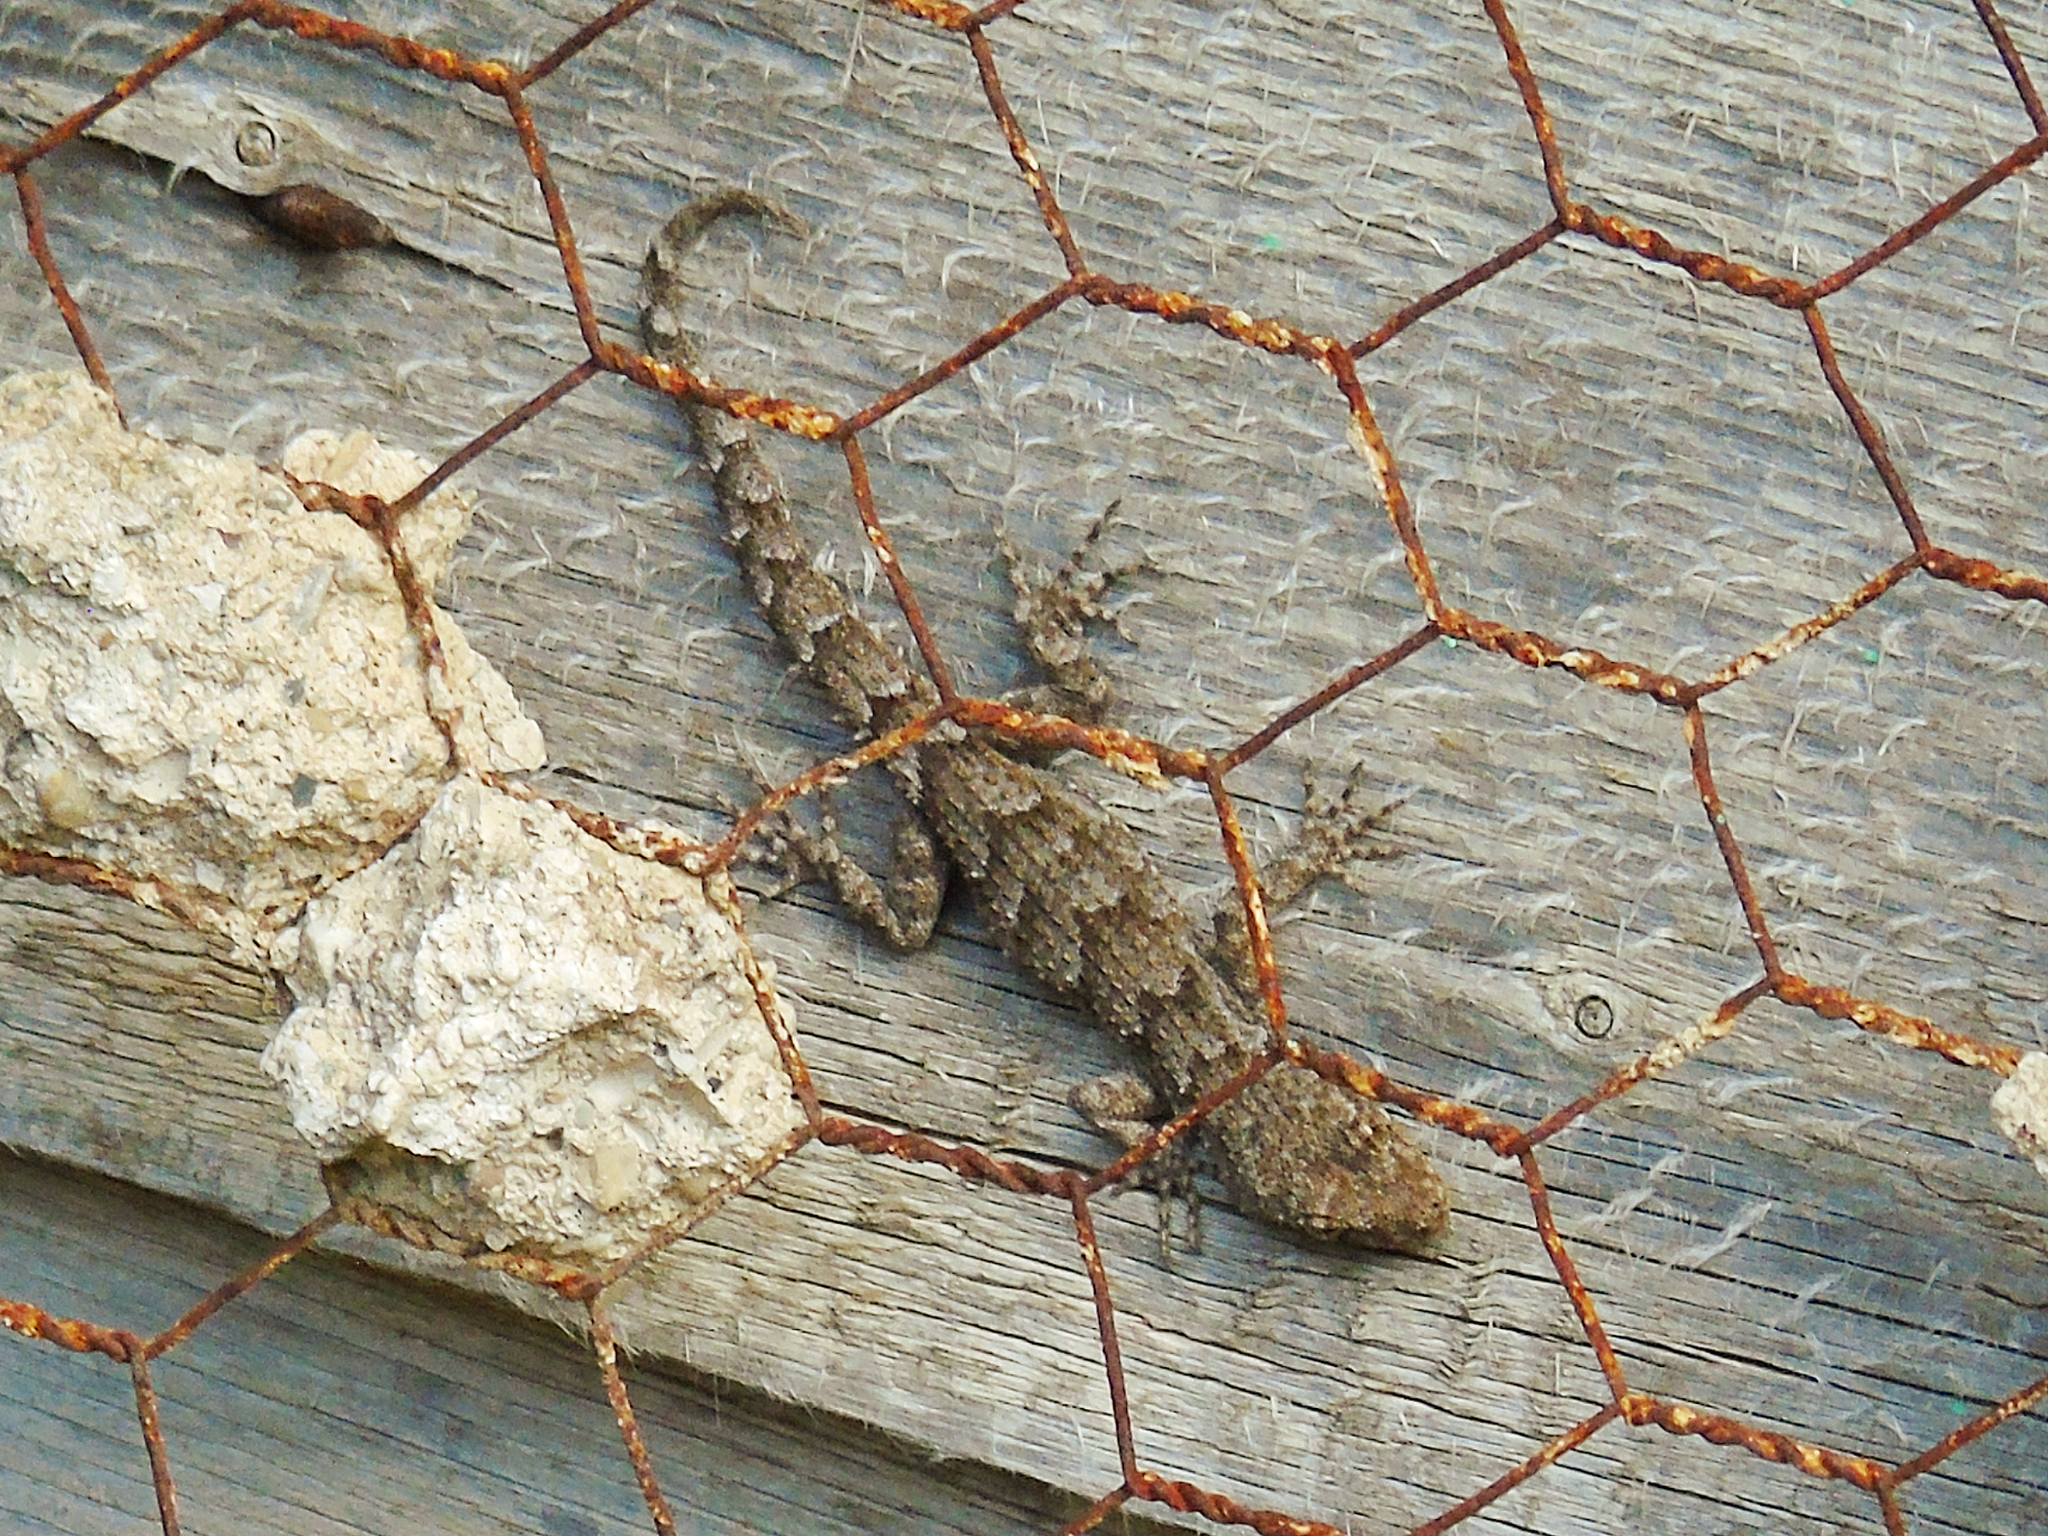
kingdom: Animalia
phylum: Chordata
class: Squamata
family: Gekkonidae
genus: Mediodactylus
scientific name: Mediodactylus kotschyi
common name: Kotschy's gecko
